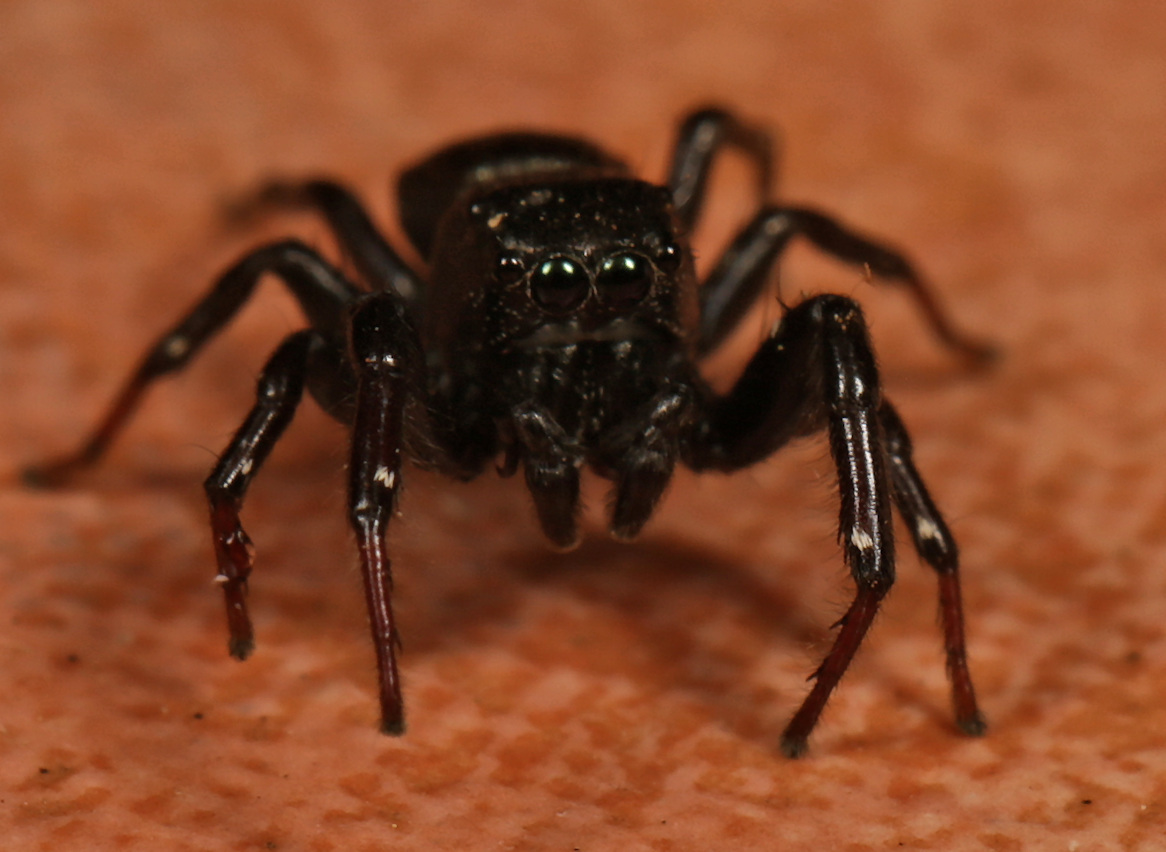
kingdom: Animalia
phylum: Arthropoda
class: Arachnida
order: Araneae
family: Salticidae
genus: Heliophanus
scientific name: Heliophanus
